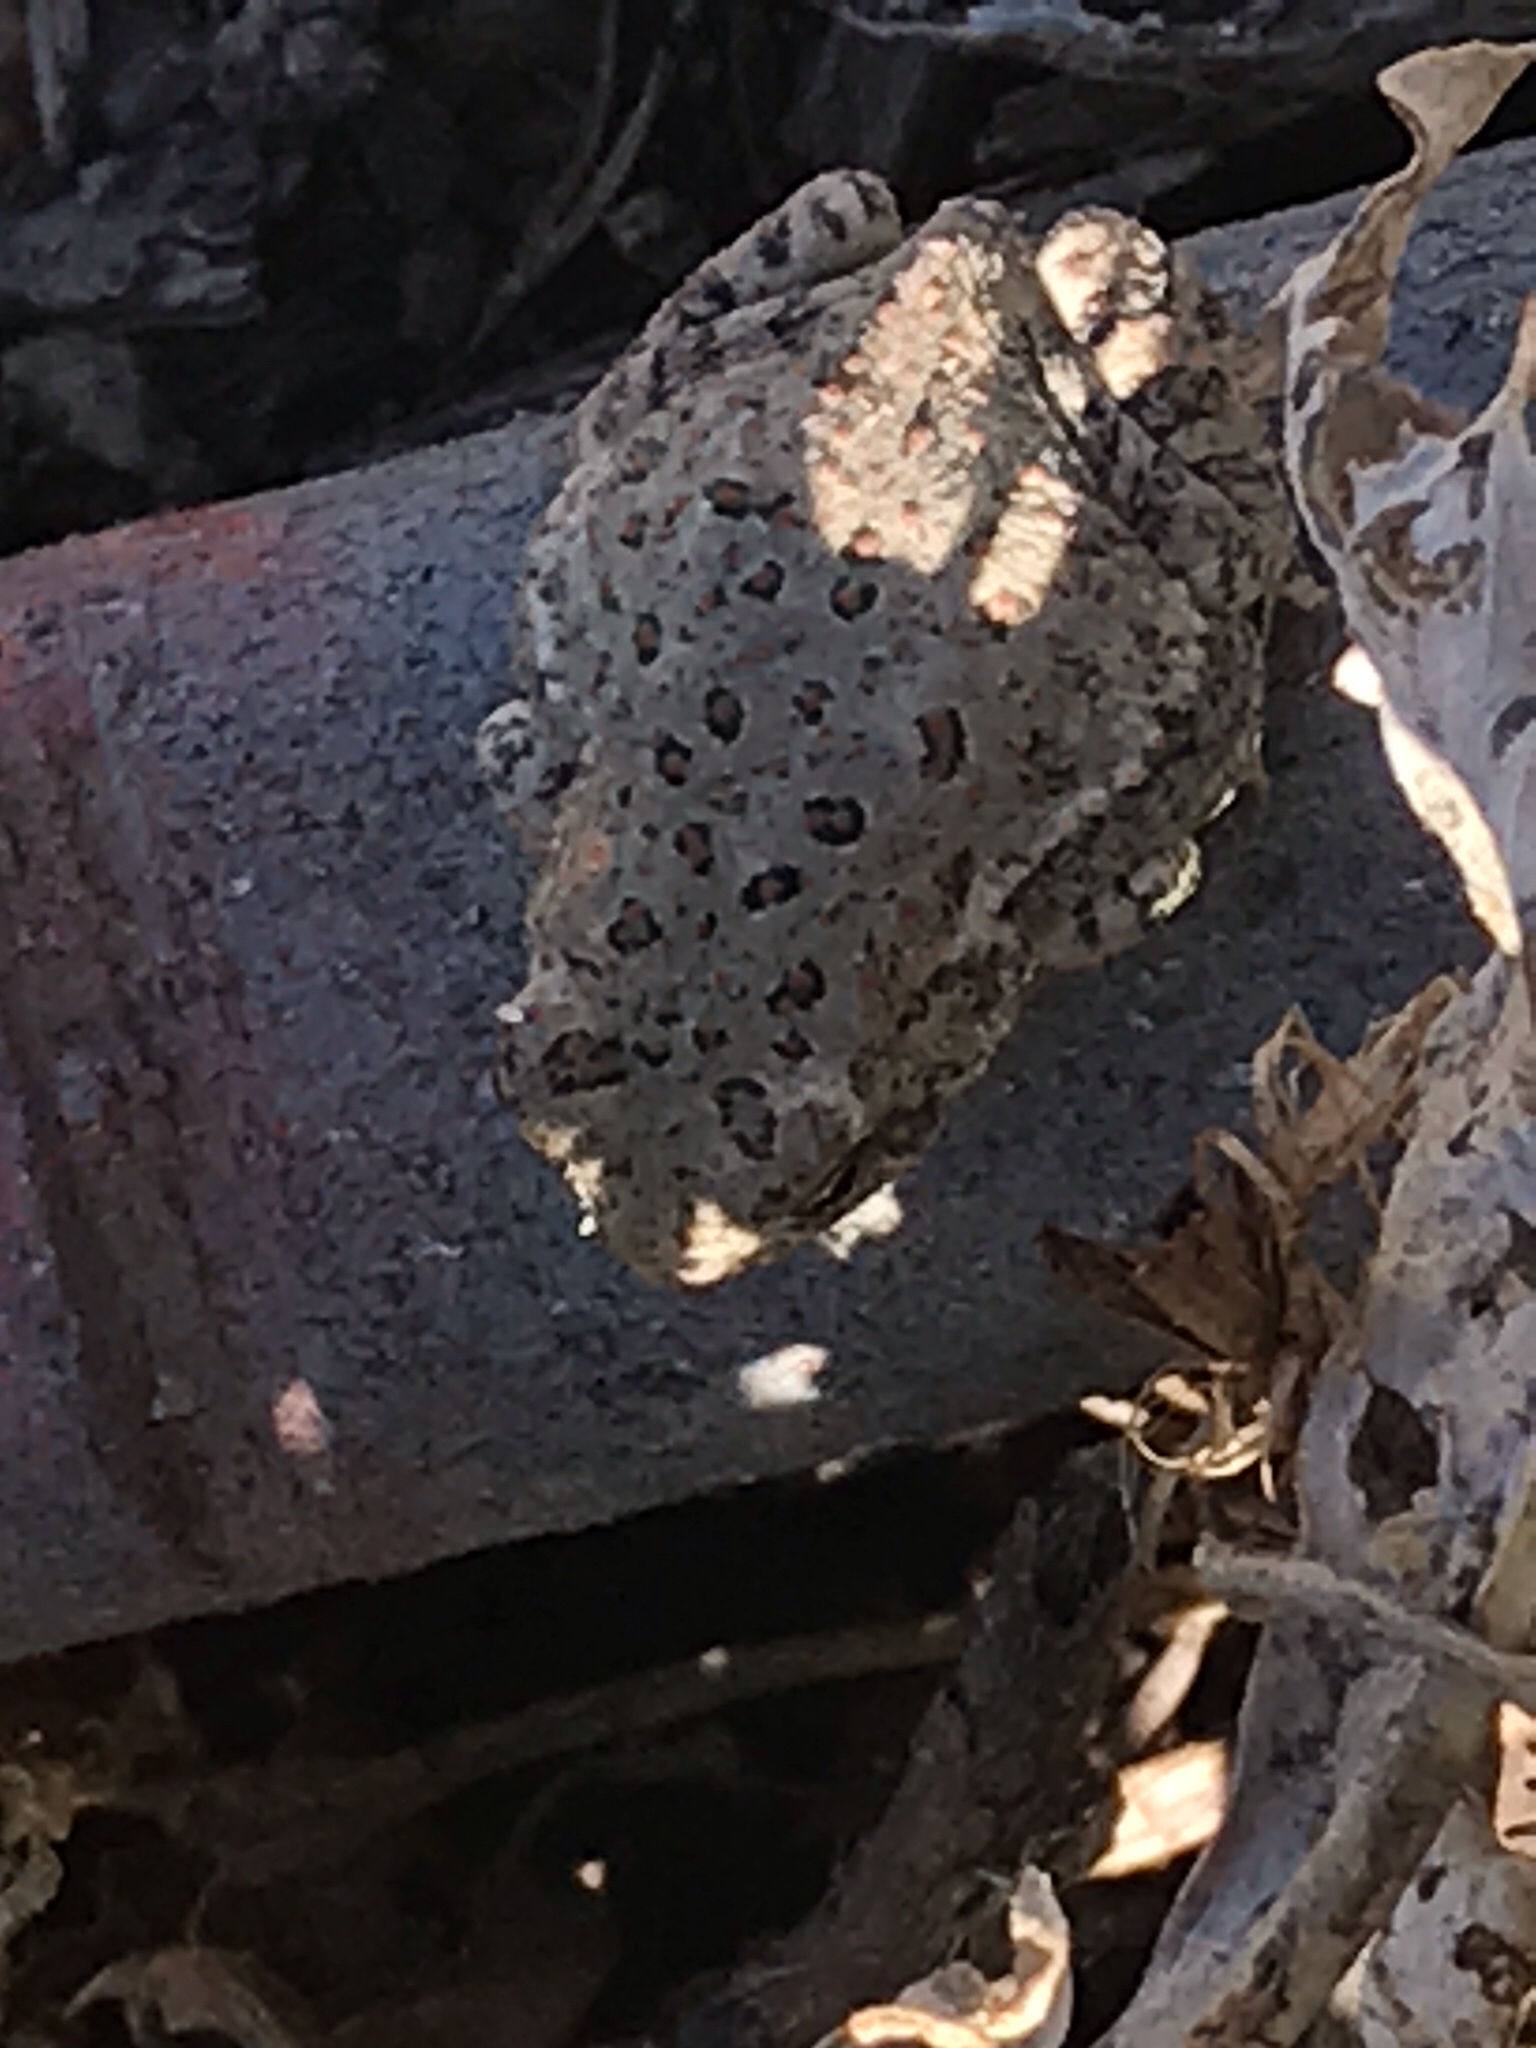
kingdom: Animalia
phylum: Chordata
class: Amphibia
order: Anura
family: Bufonidae
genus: Anaxyrus
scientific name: Anaxyrus woodhousii
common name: Woodhouse's toad
